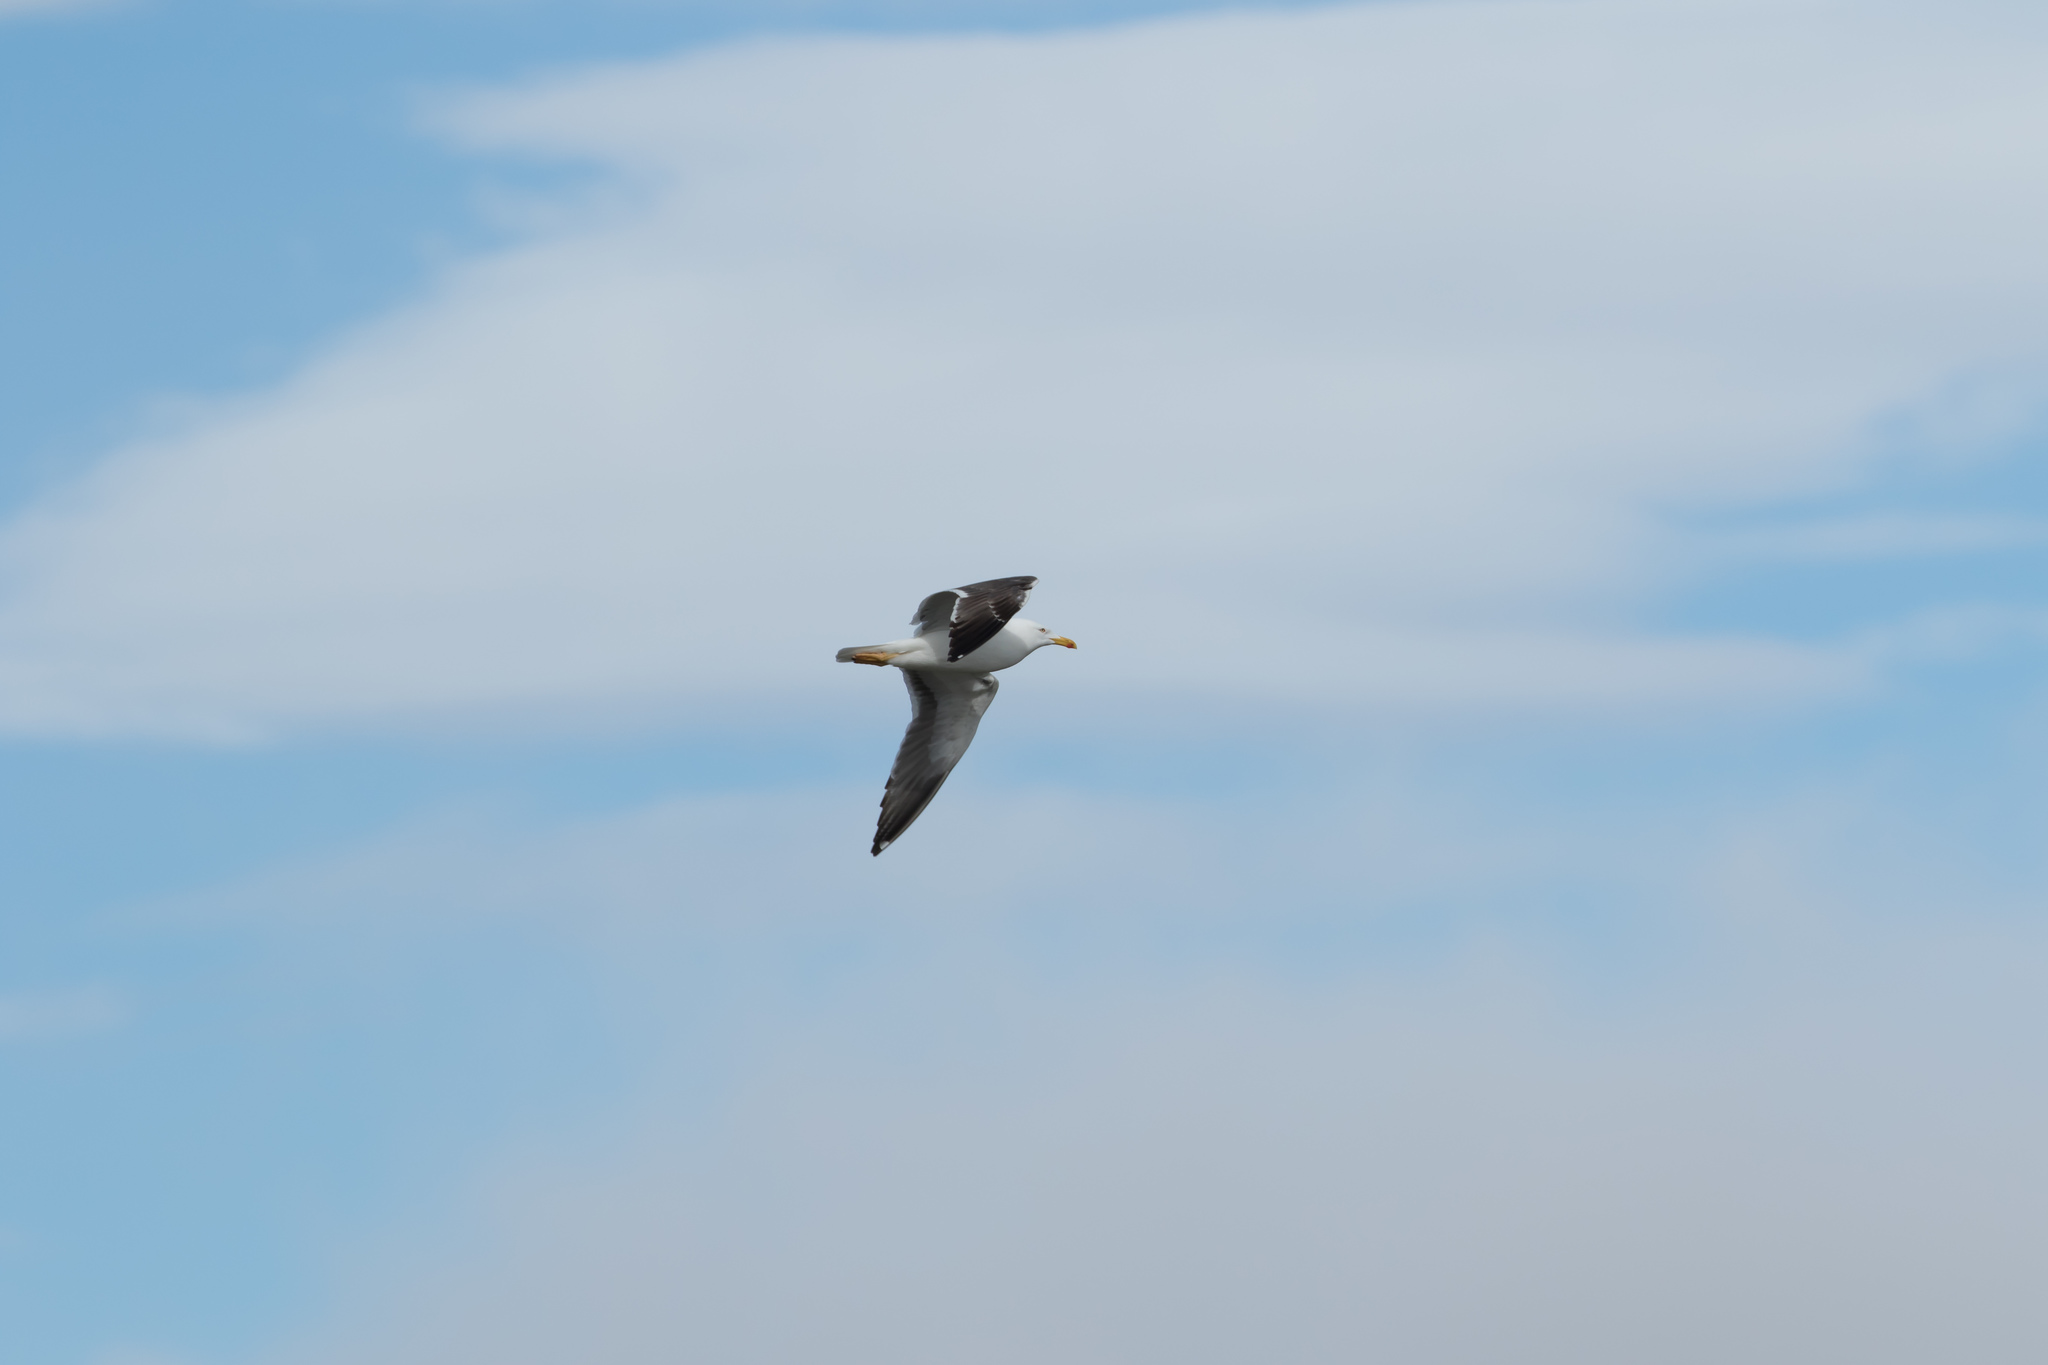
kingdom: Animalia
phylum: Chordata
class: Aves
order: Charadriiformes
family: Laridae
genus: Larus
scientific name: Larus fuscus
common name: Lesser black-backed gull
